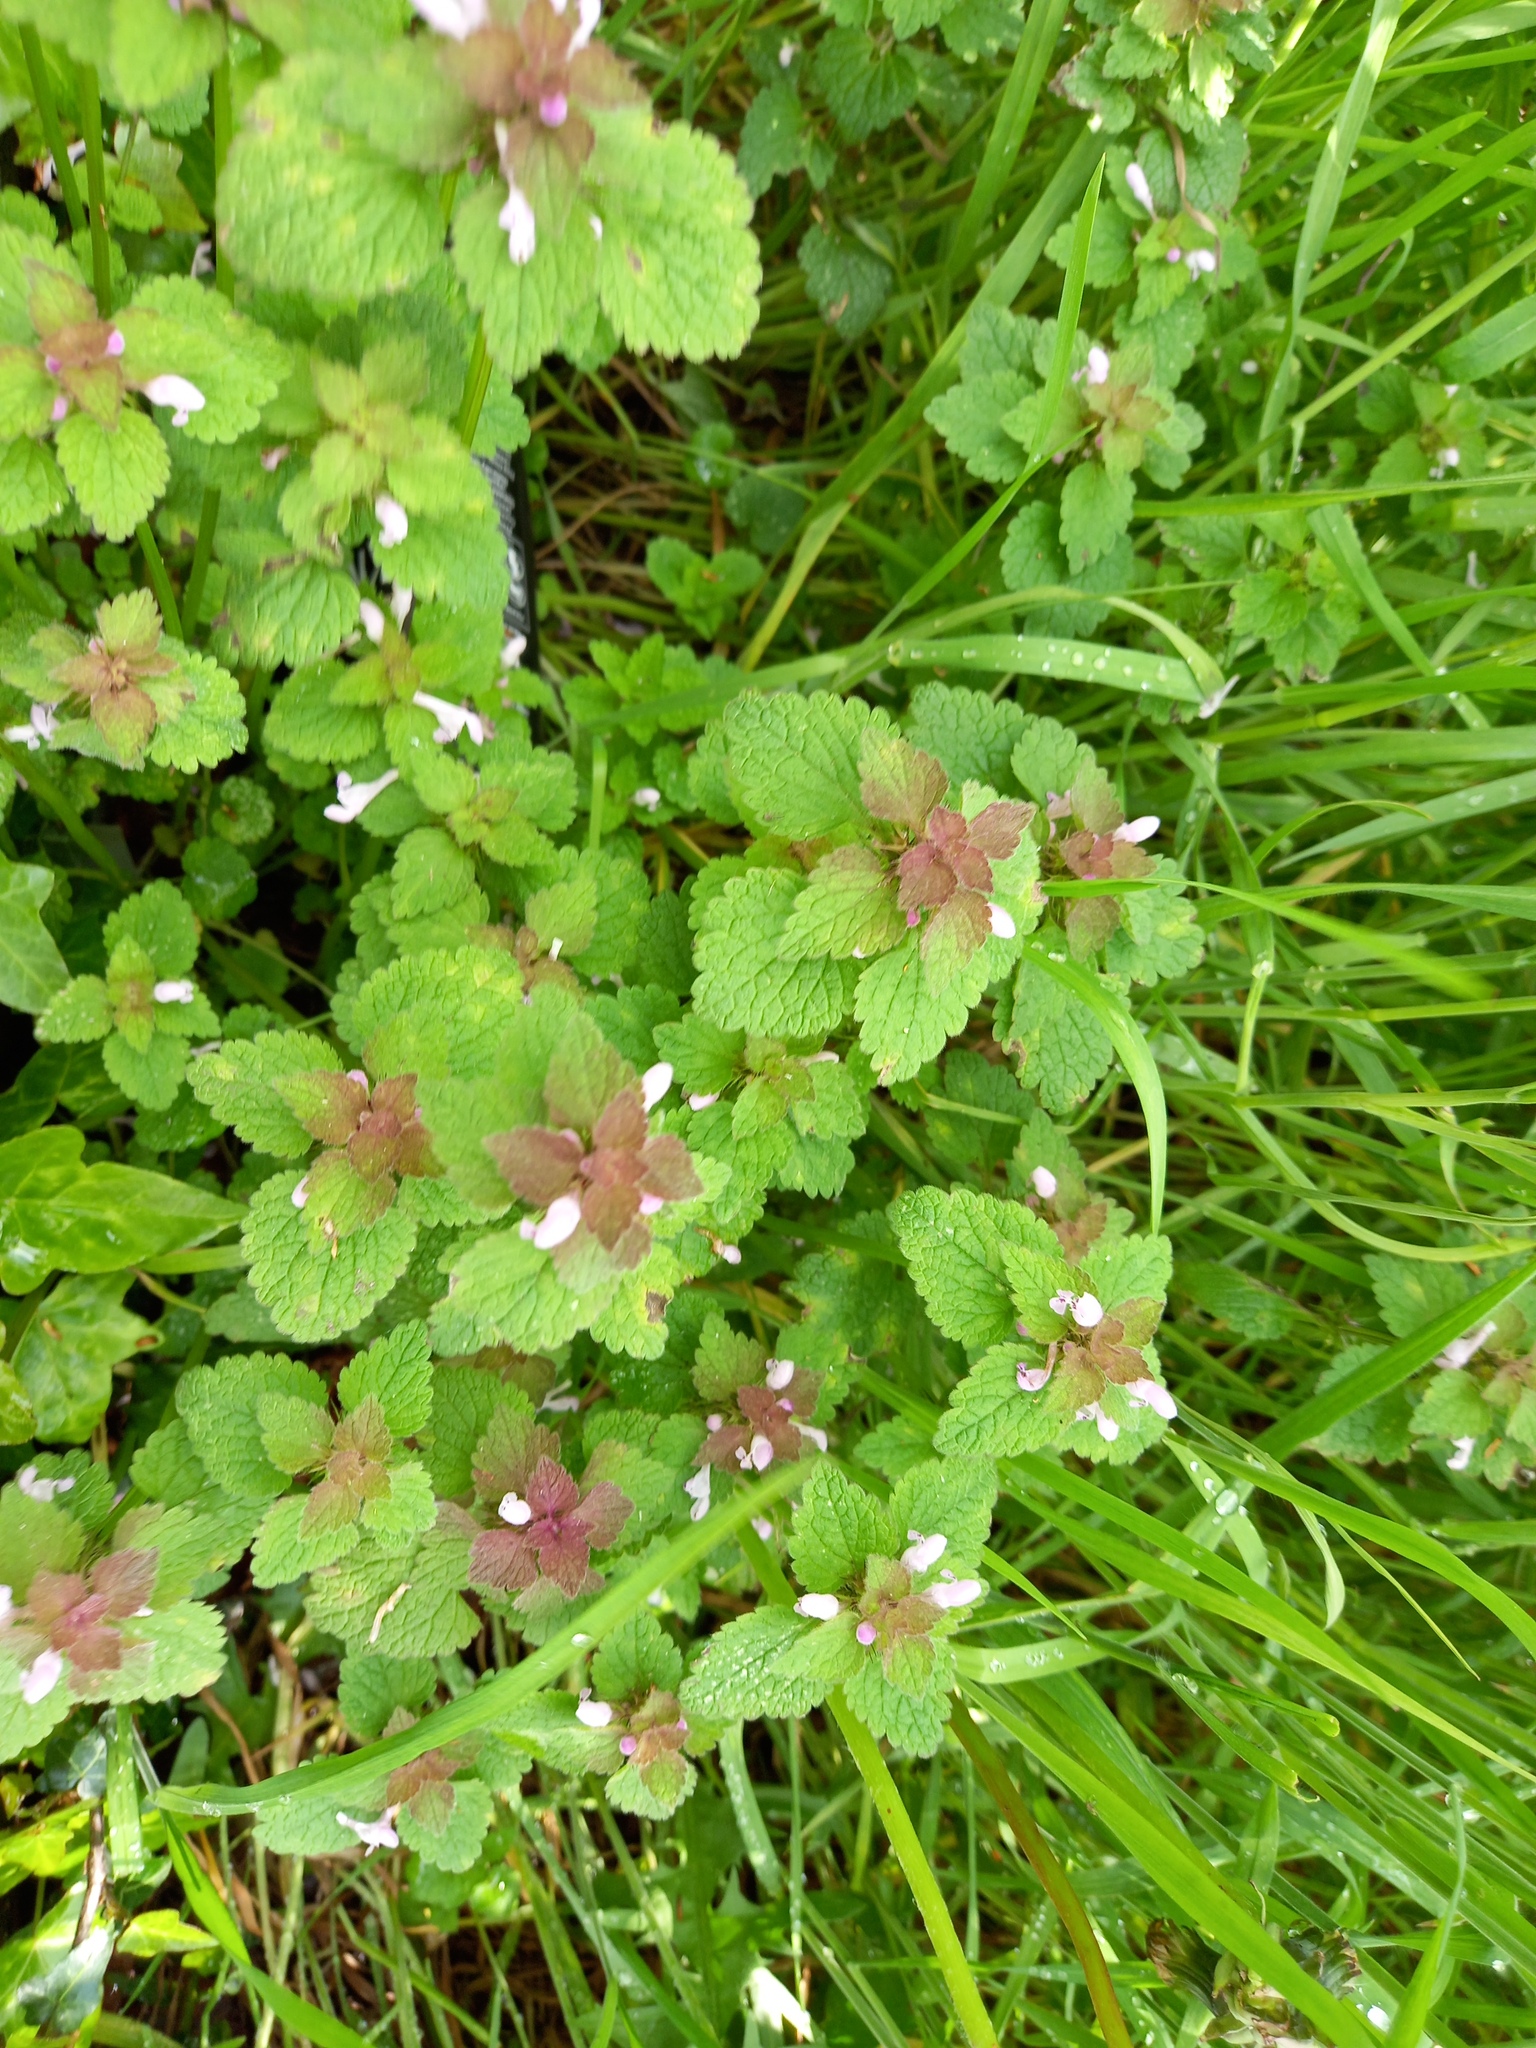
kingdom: Plantae
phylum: Tracheophyta
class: Magnoliopsida
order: Lamiales
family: Lamiaceae
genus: Lamium
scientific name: Lamium purpureum
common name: Red dead-nettle
